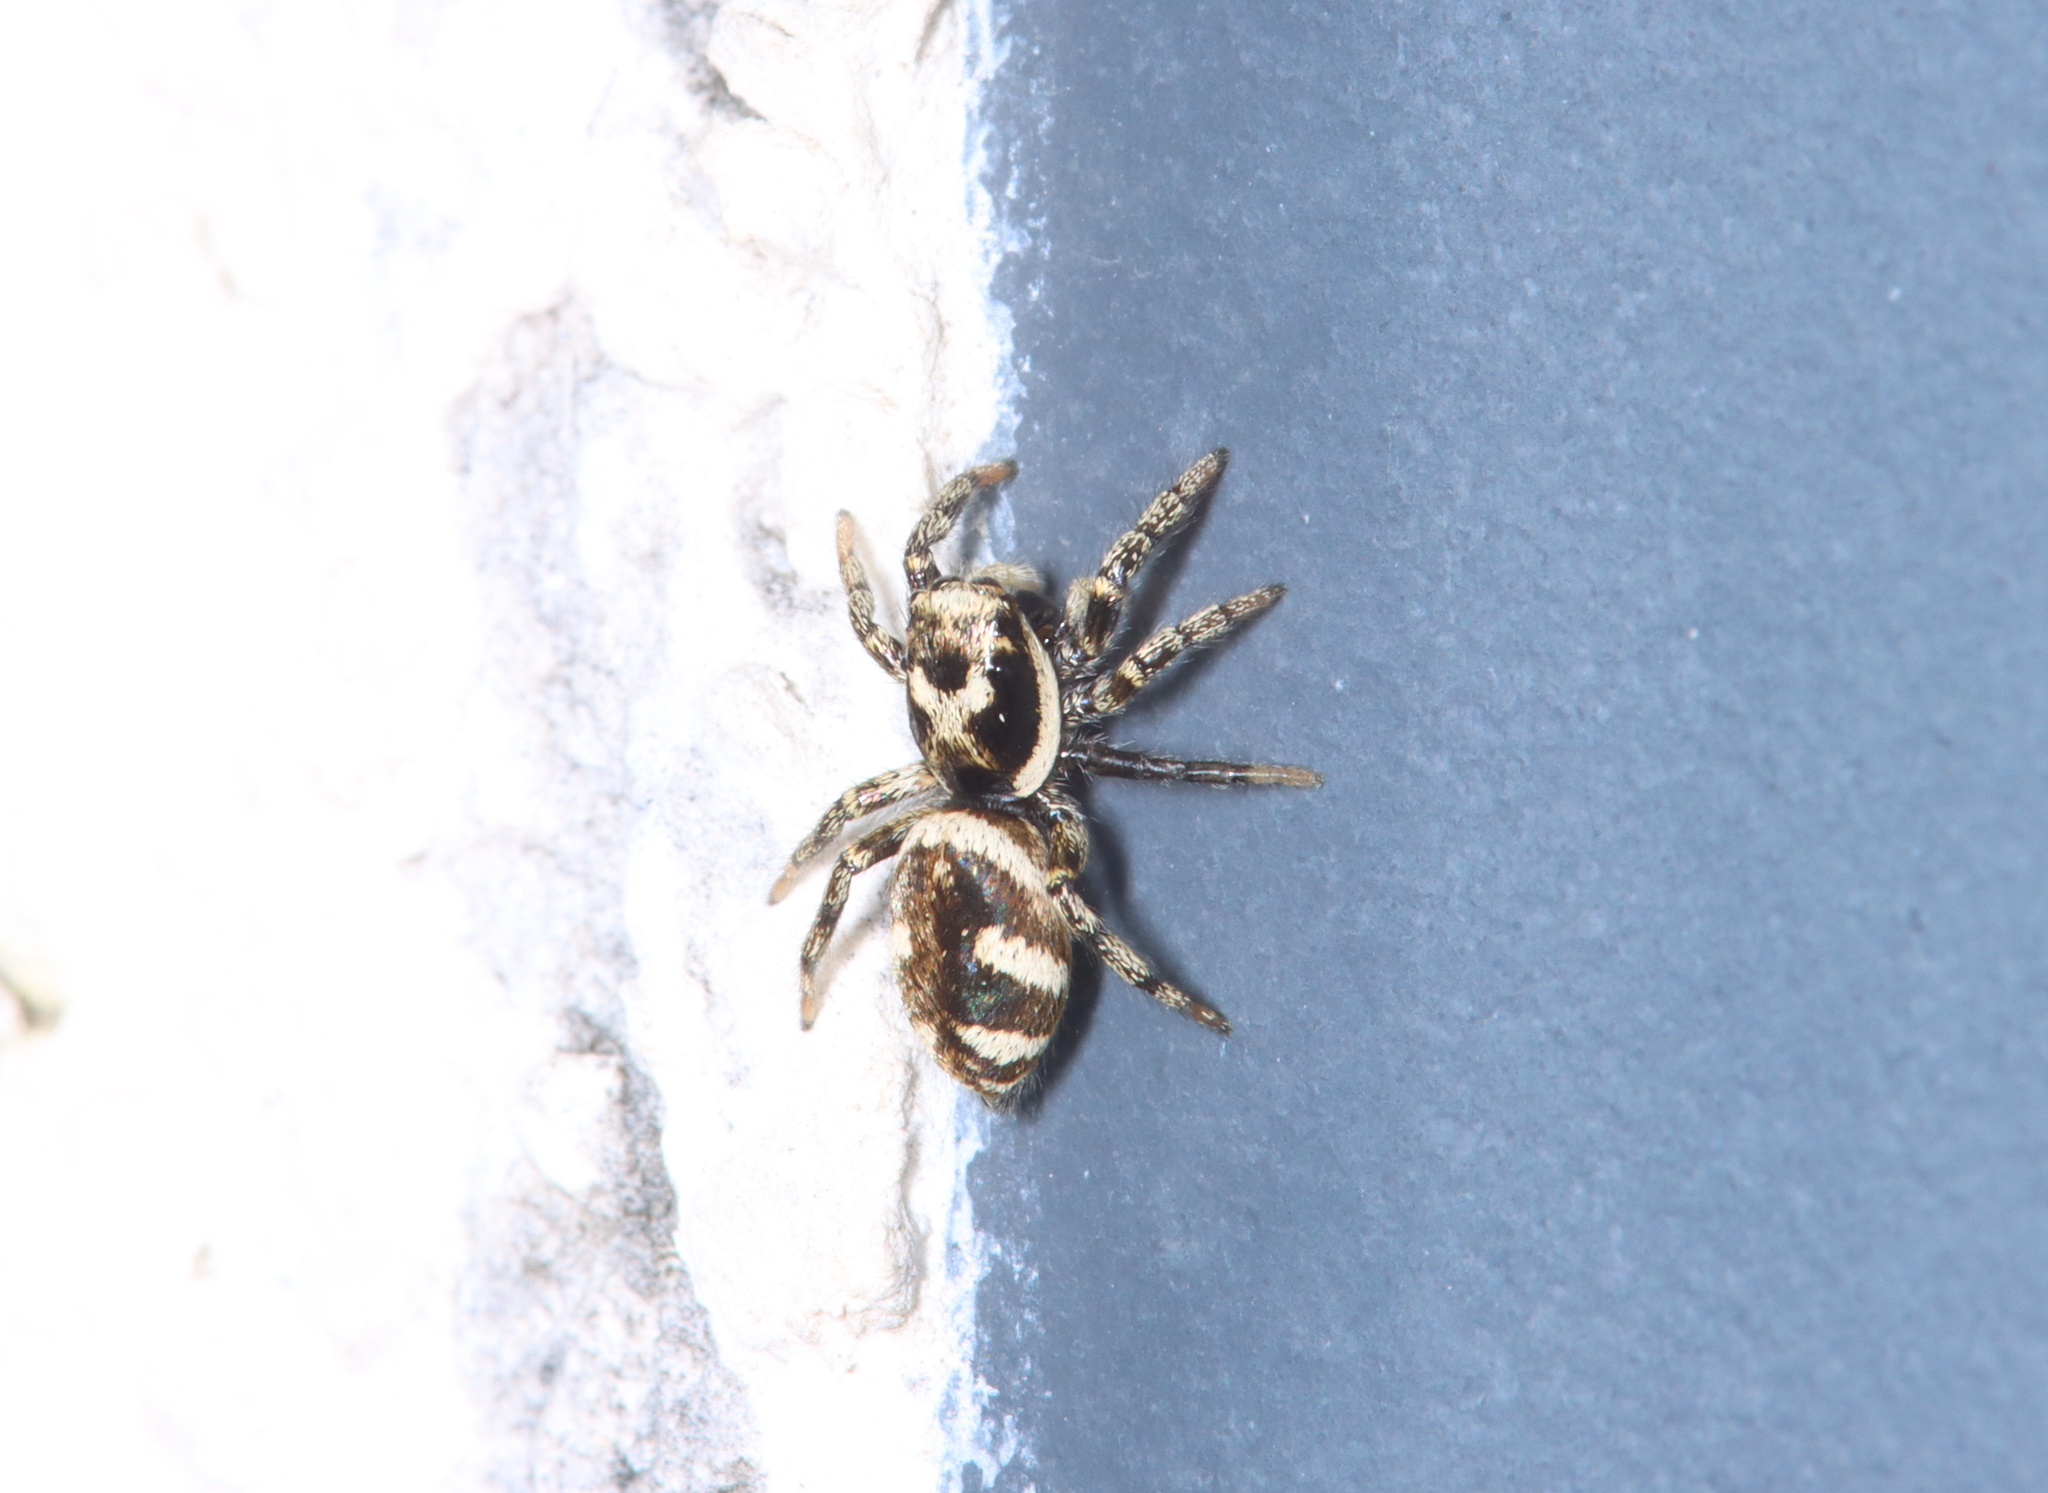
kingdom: Animalia
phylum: Arthropoda
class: Arachnida
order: Araneae
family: Salticidae
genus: Salticus
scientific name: Salticus scenicus
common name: Zebra jumper
